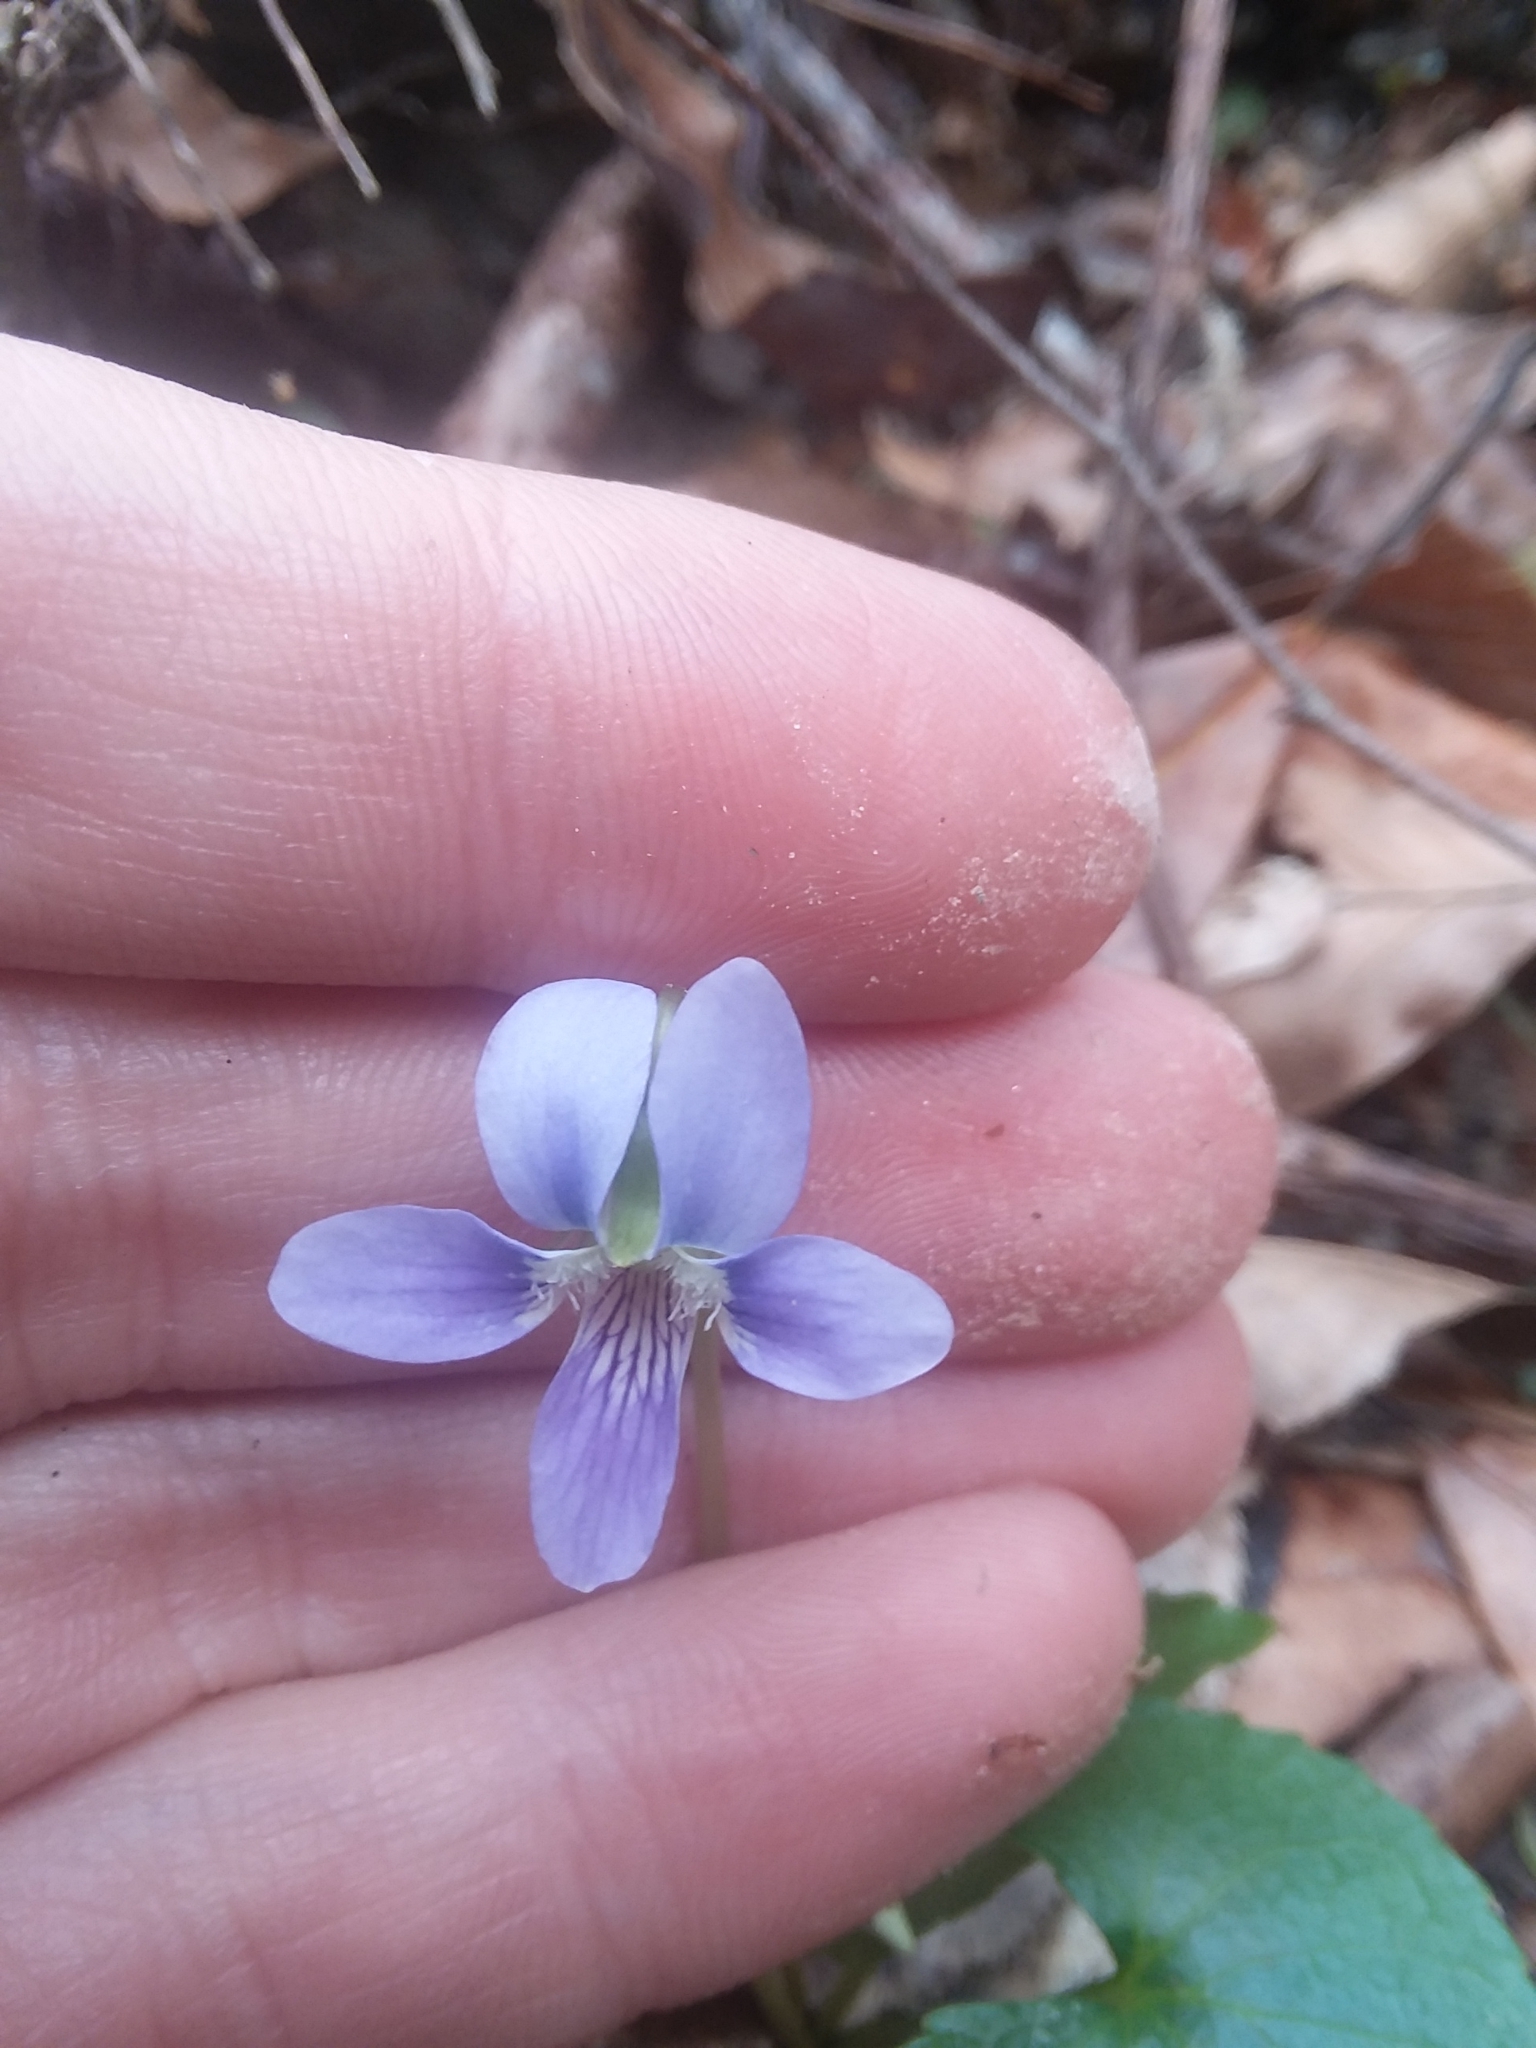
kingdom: Plantae
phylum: Tracheophyta
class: Magnoliopsida
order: Malpighiales
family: Violaceae
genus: Viola
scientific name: Viola sororia
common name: Dooryard violet
